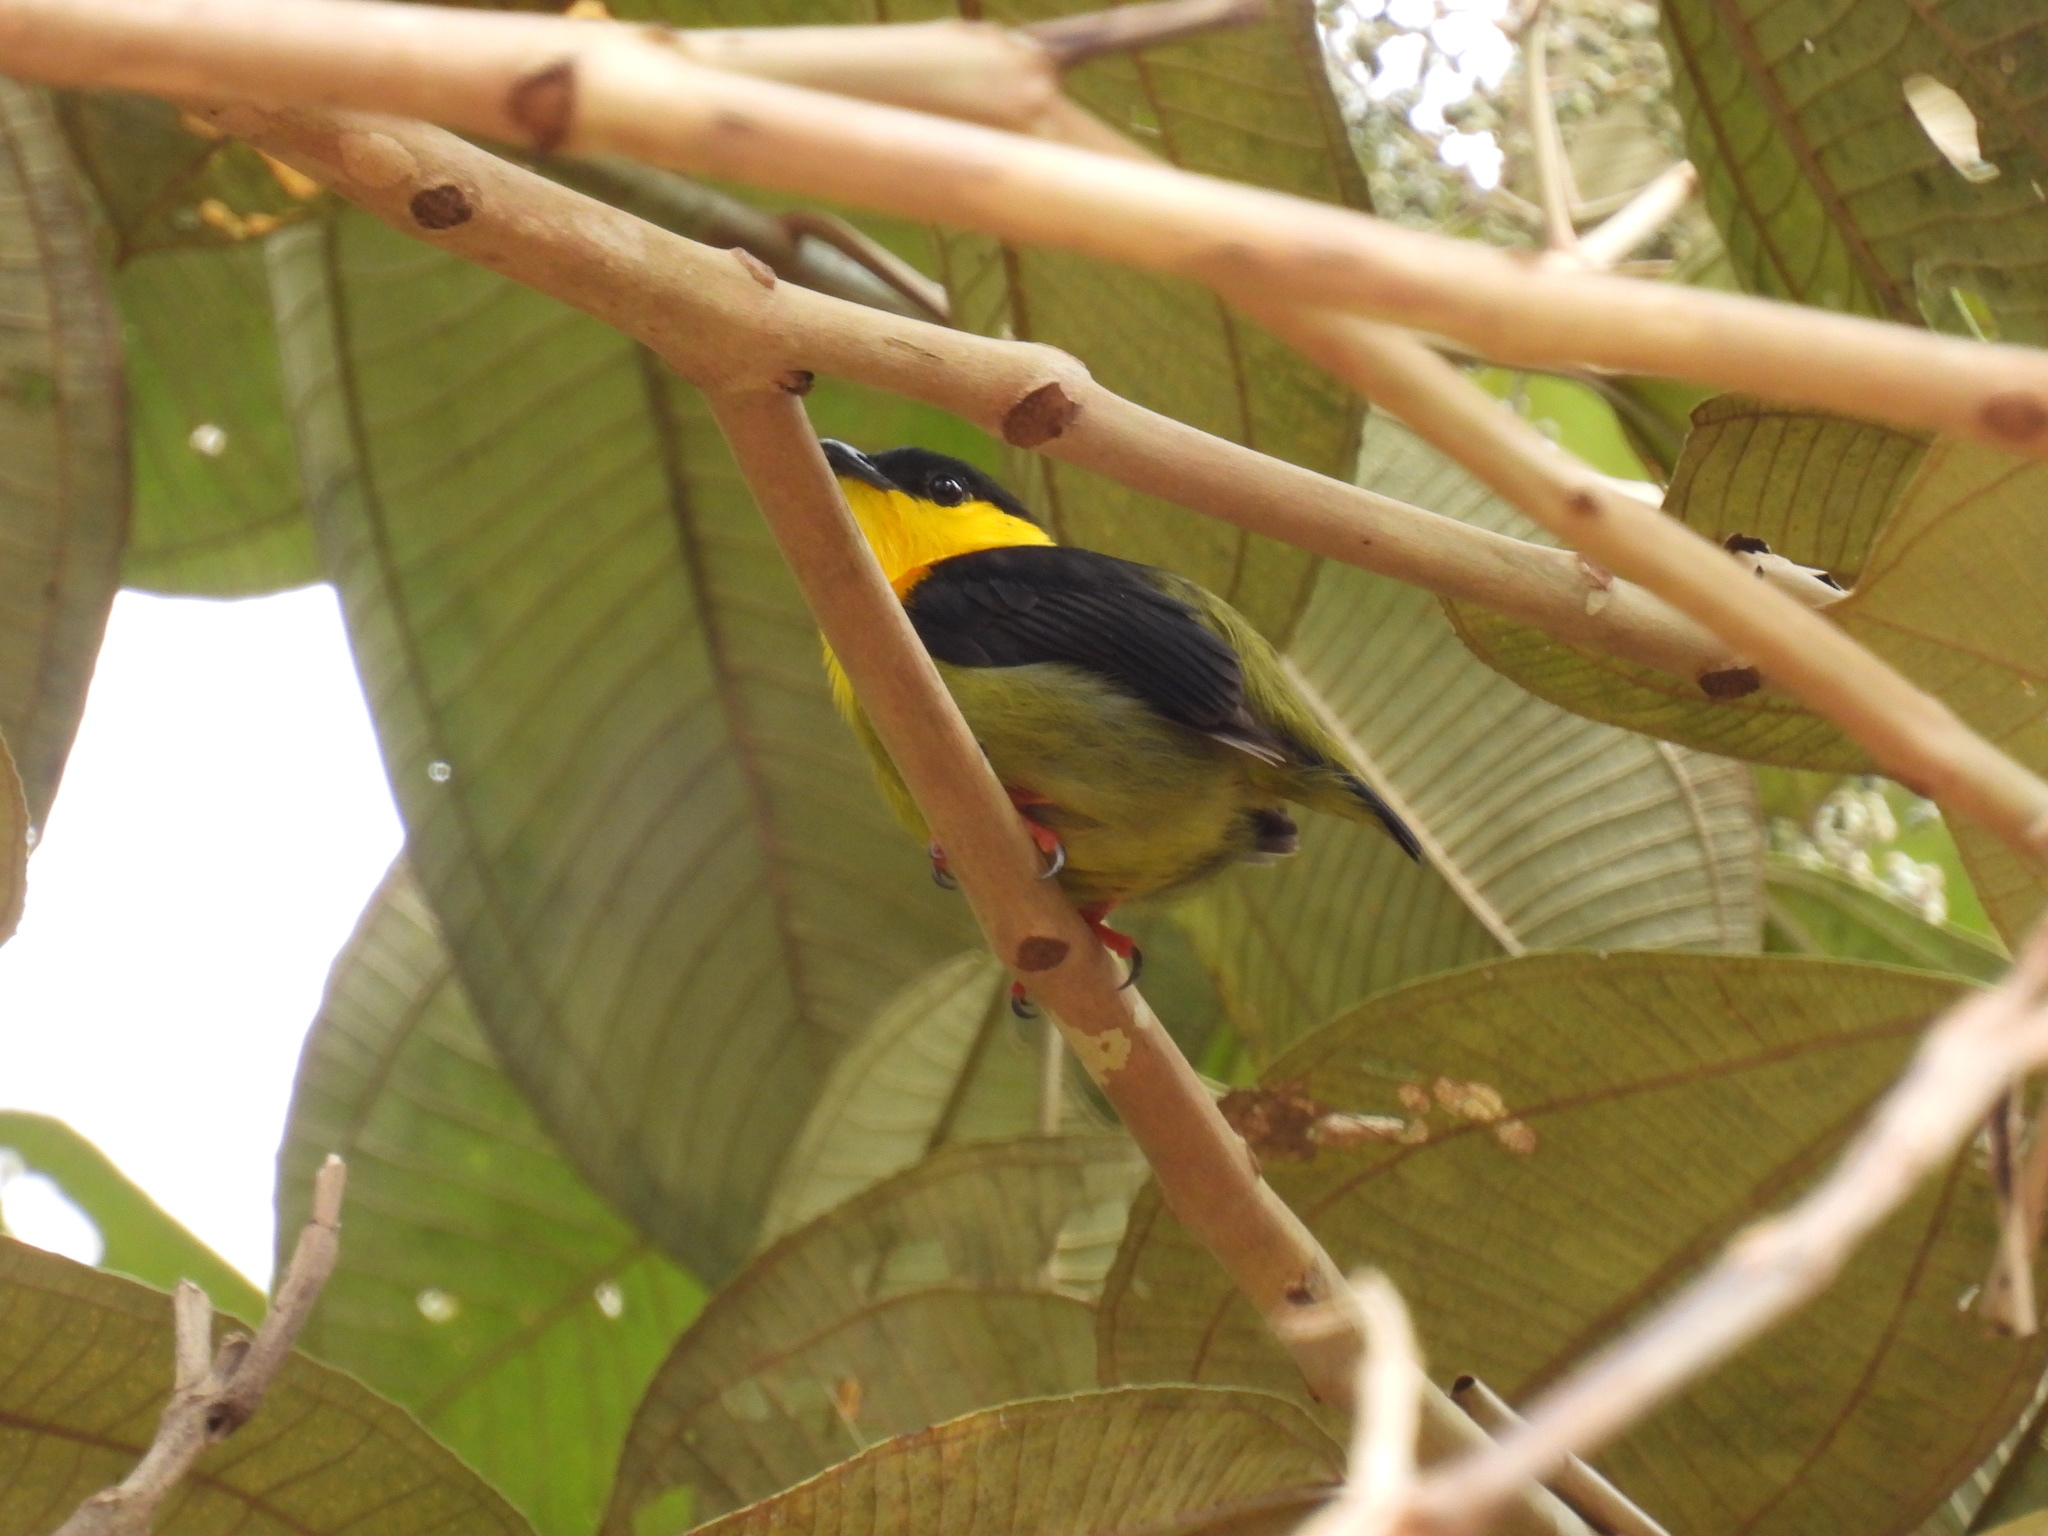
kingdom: Animalia
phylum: Chordata
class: Aves
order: Passeriformes
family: Pipridae
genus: Manacus
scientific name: Manacus vitellinus
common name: Golden-collared manakin
